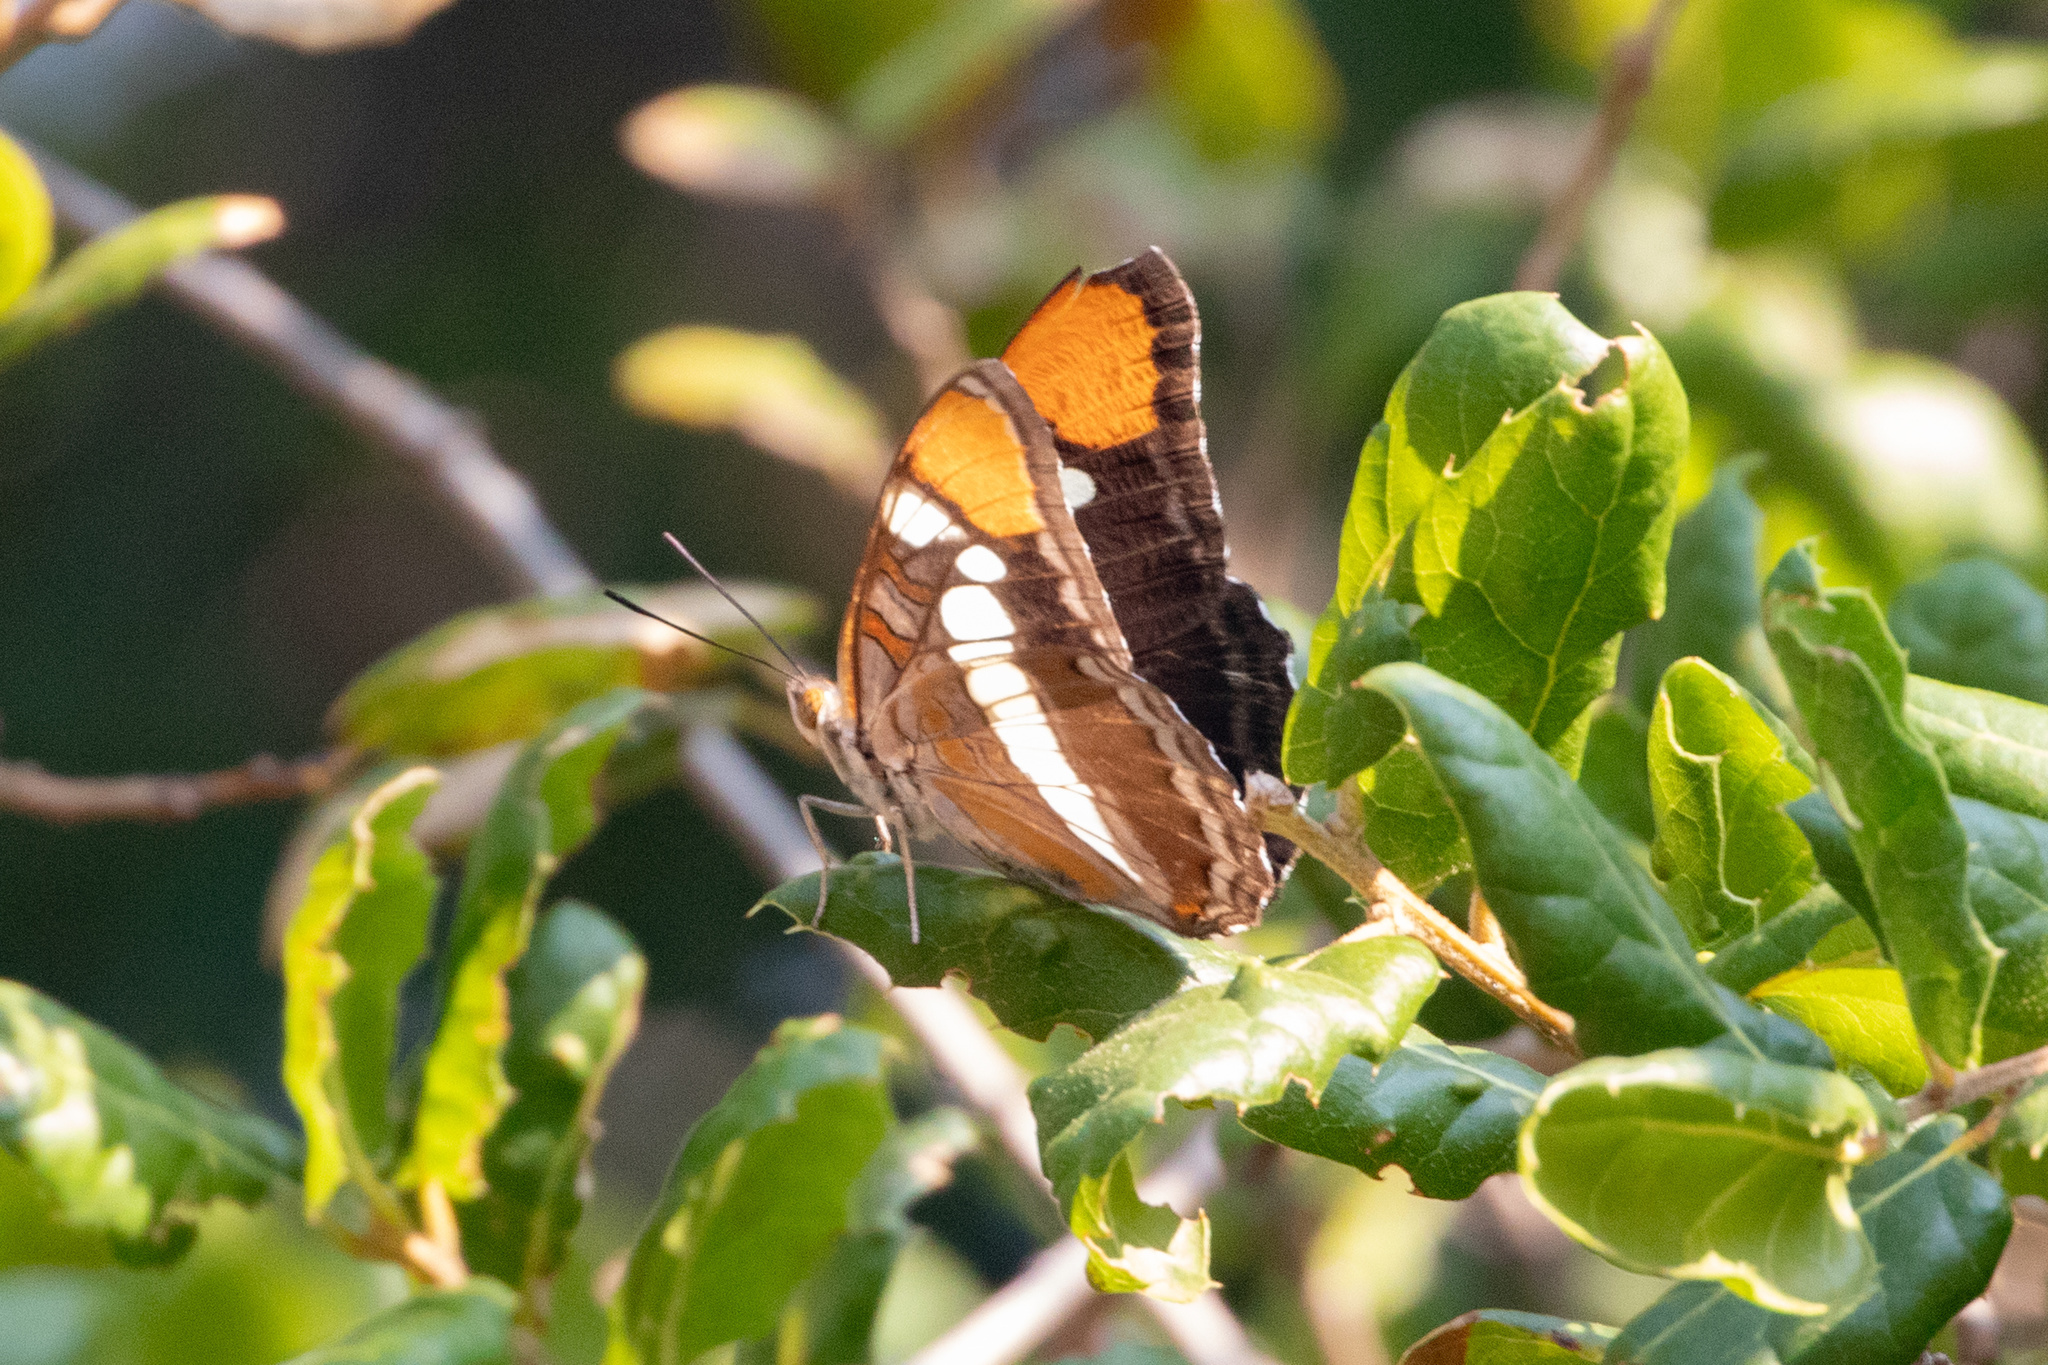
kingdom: Animalia
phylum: Arthropoda
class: Insecta
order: Lepidoptera
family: Nymphalidae
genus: Limenitis
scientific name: Limenitis bredowii
